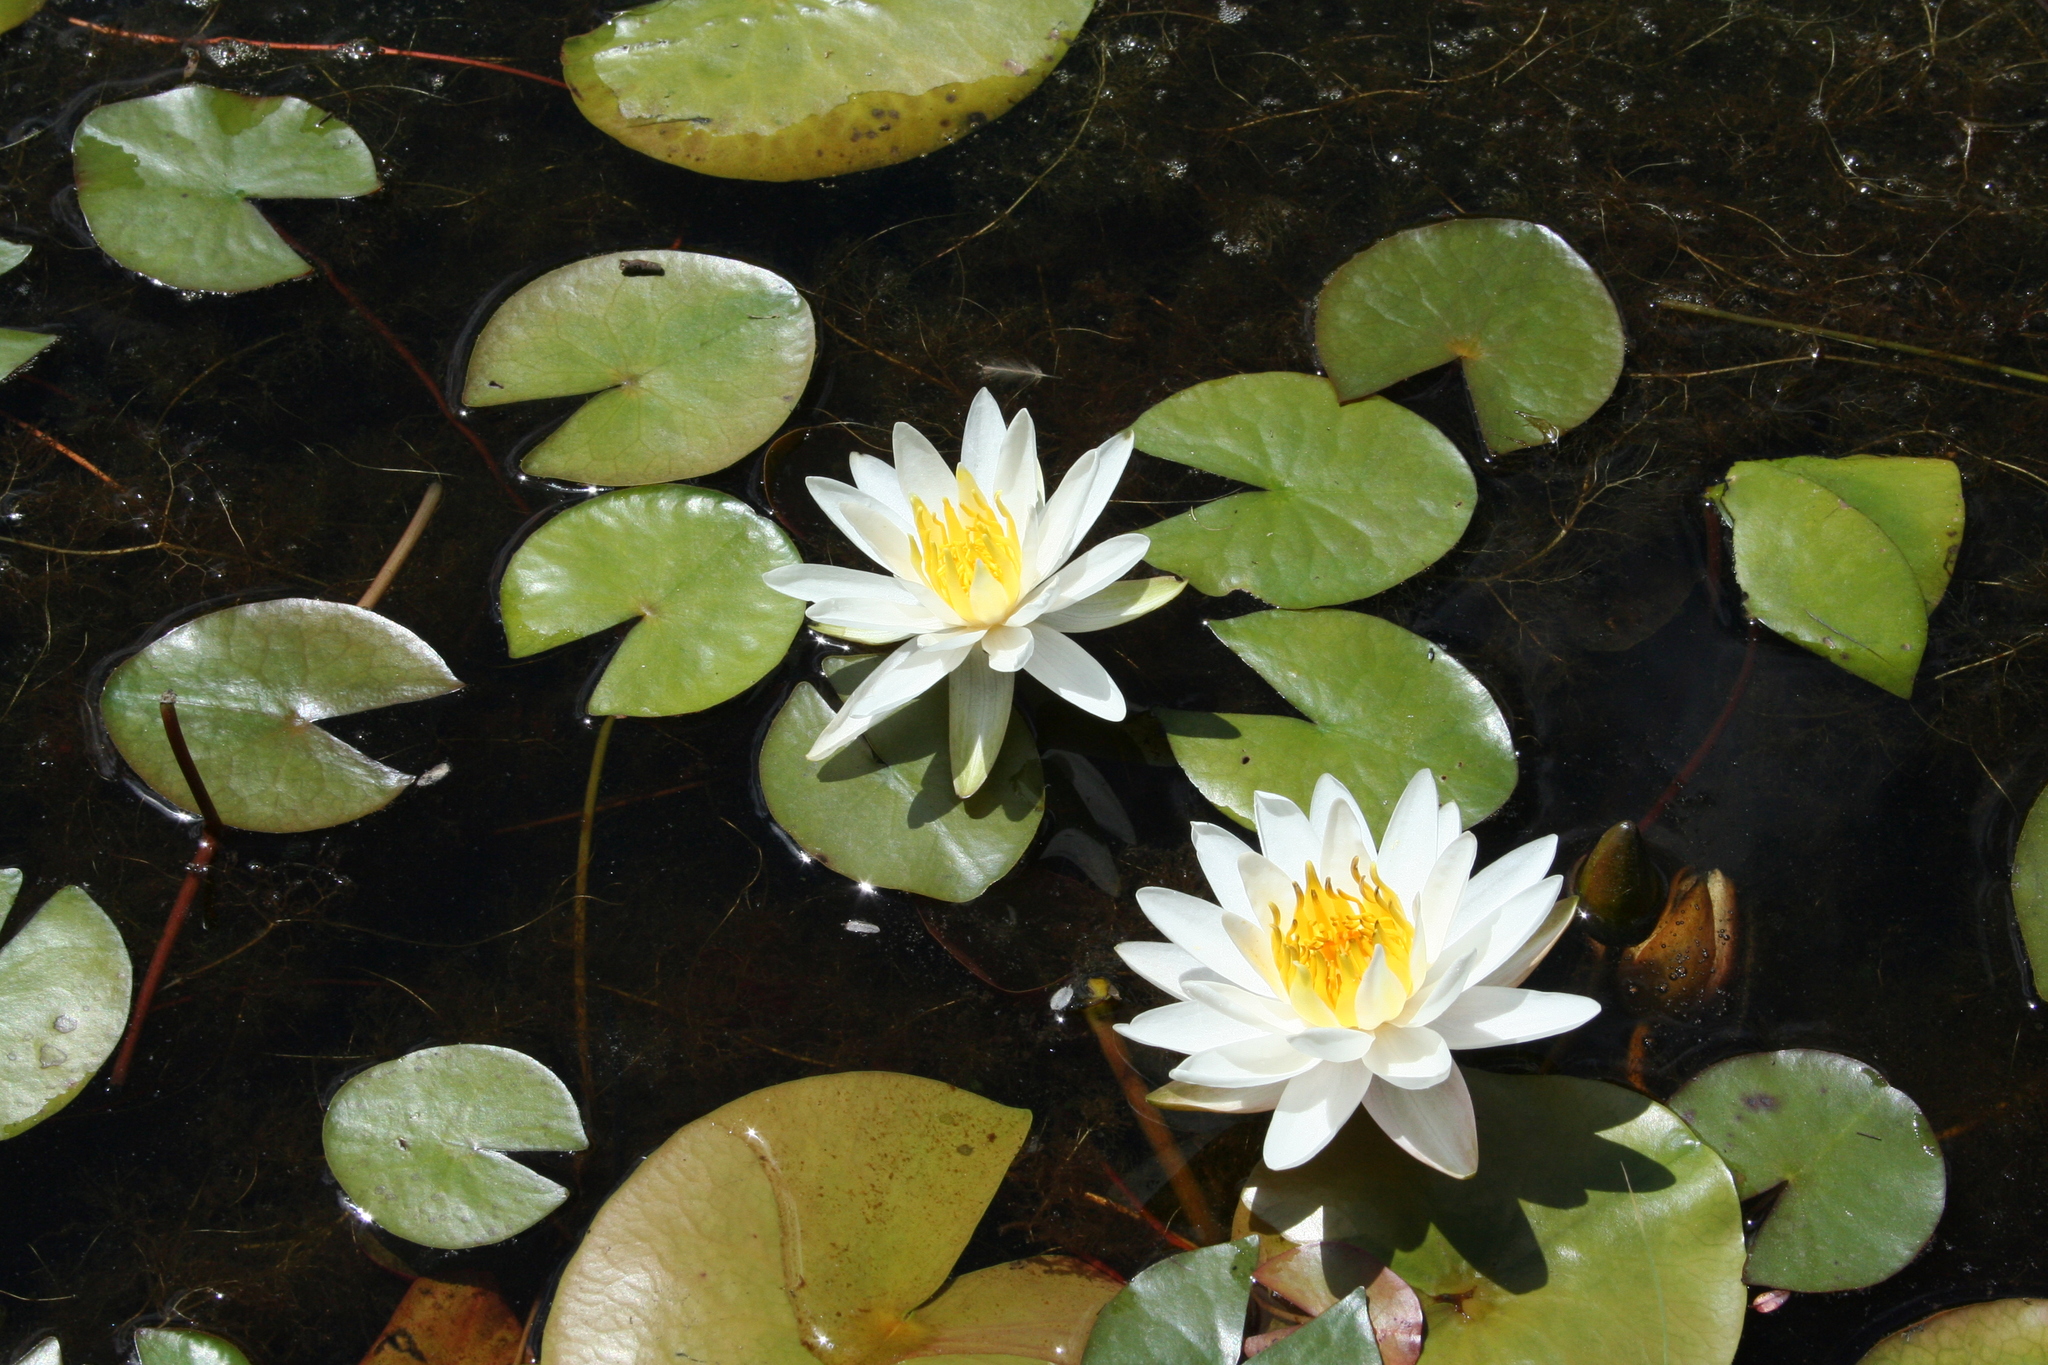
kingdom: Plantae
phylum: Tracheophyta
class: Magnoliopsida
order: Nymphaeales
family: Nymphaeaceae
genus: Nymphaea
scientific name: Nymphaea odorata
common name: Fragrant water-lily
